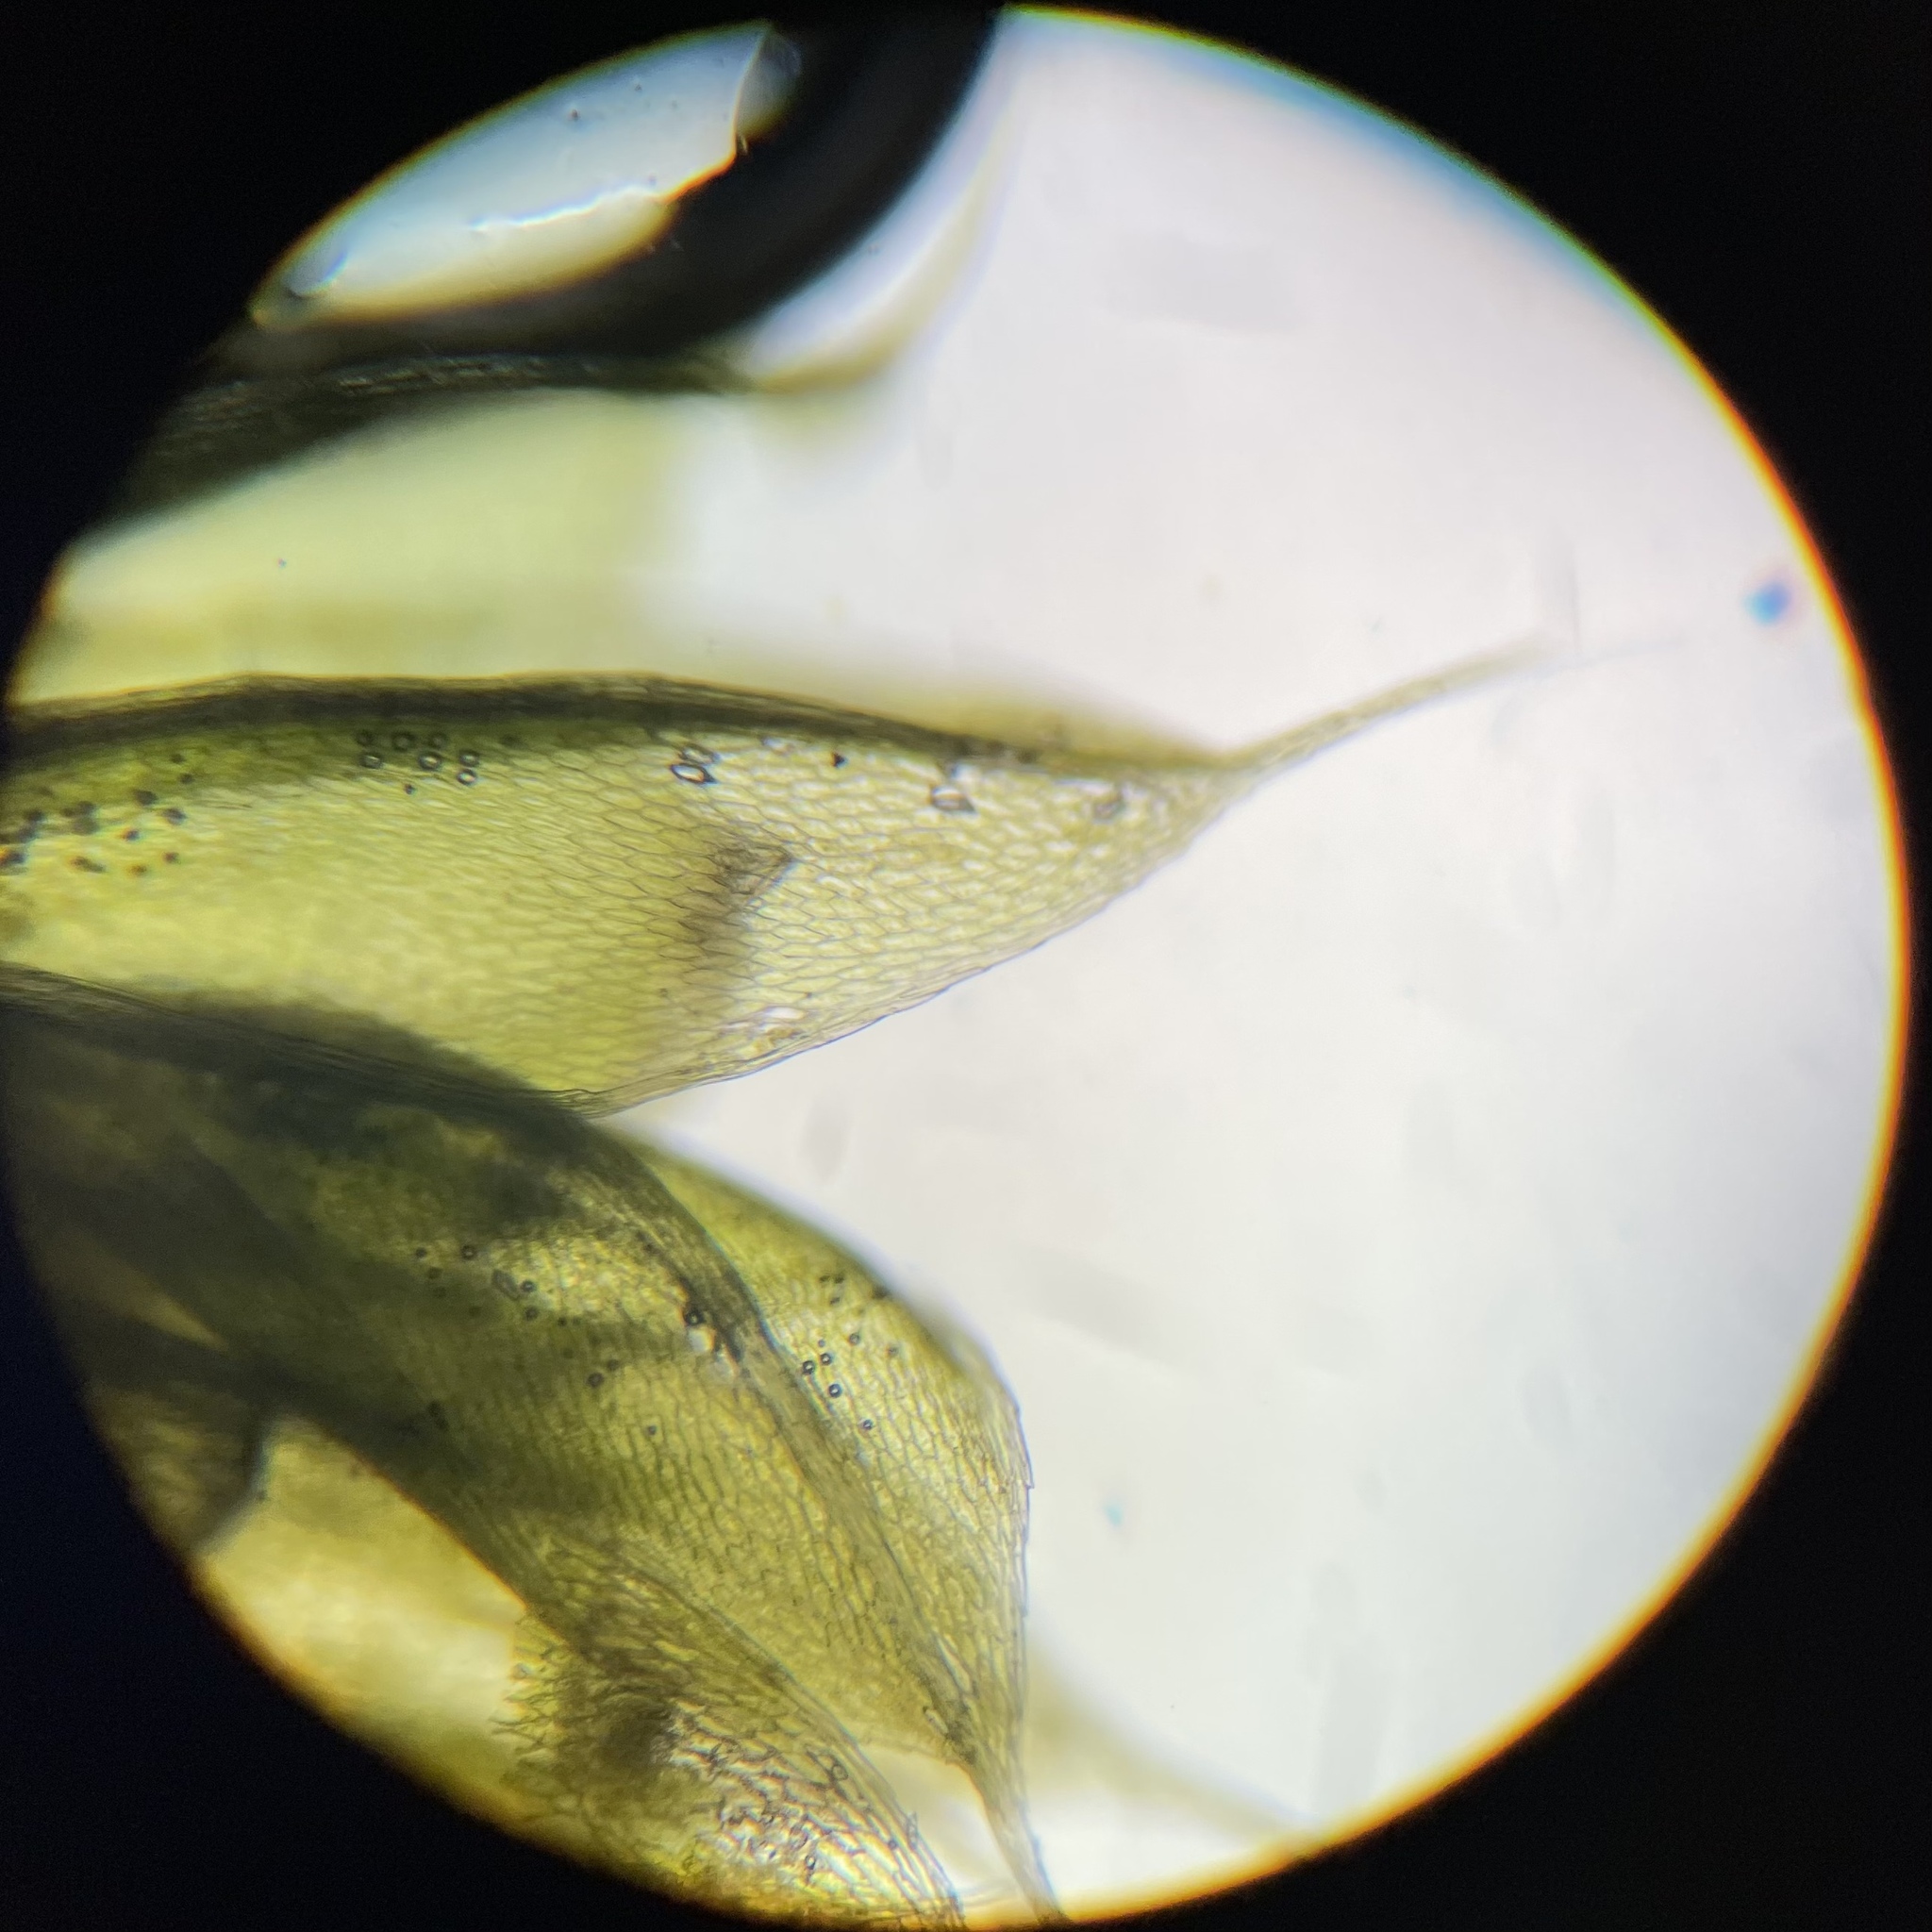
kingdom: Plantae
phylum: Bryophyta
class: Bryopsida
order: Bryales
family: Bryaceae
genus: Rosulabryum
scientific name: Rosulabryum capillare
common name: Capillary thread-moss
